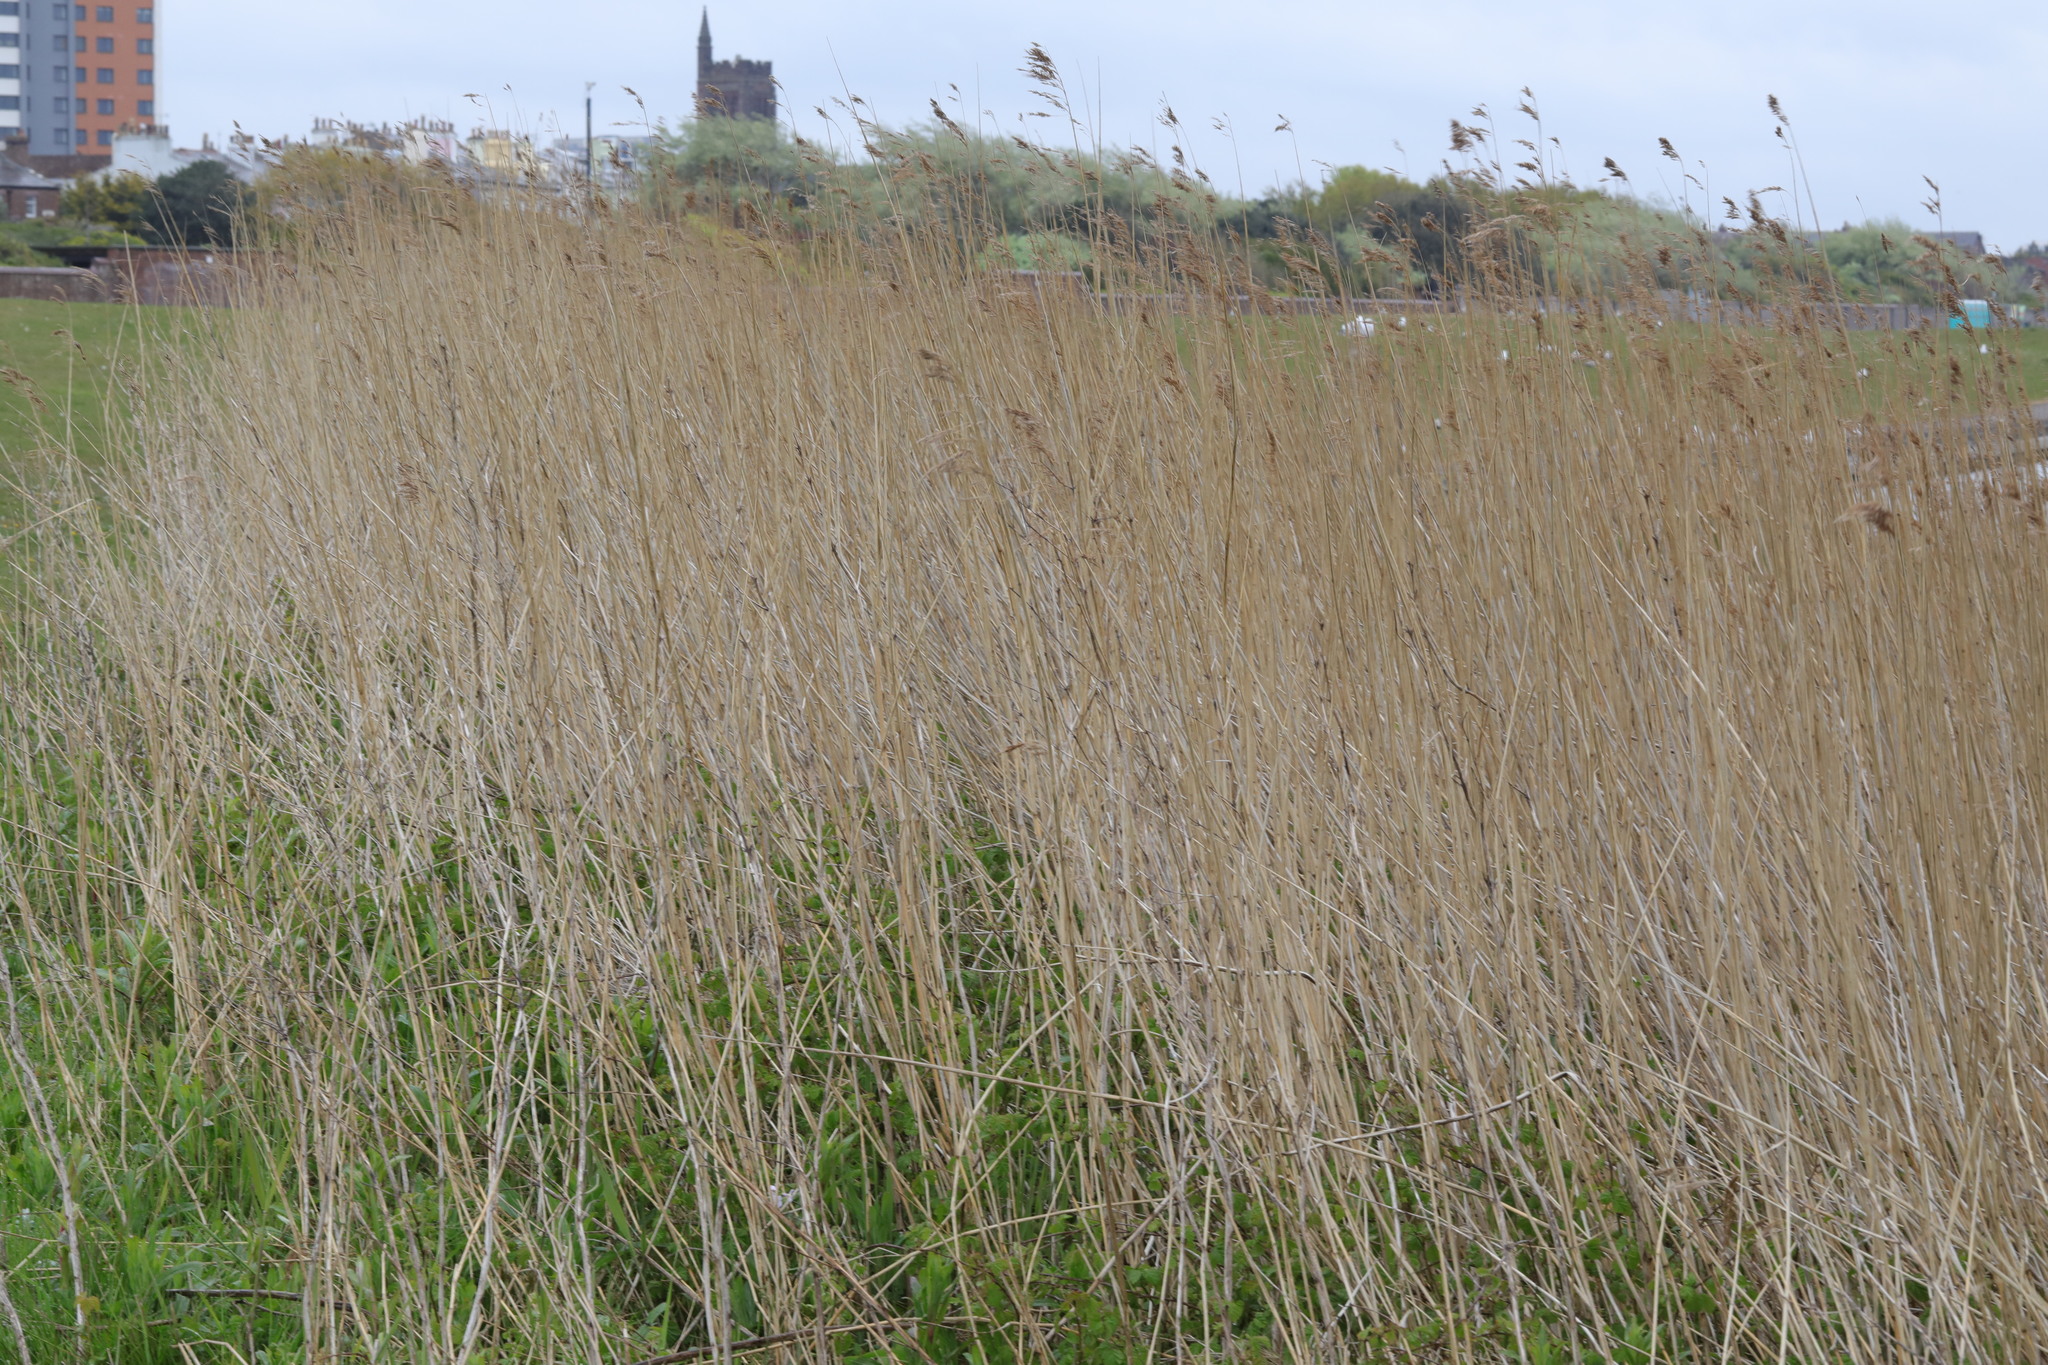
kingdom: Plantae
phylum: Tracheophyta
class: Liliopsida
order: Poales
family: Poaceae
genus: Phragmites
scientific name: Phragmites australis
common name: Common reed
